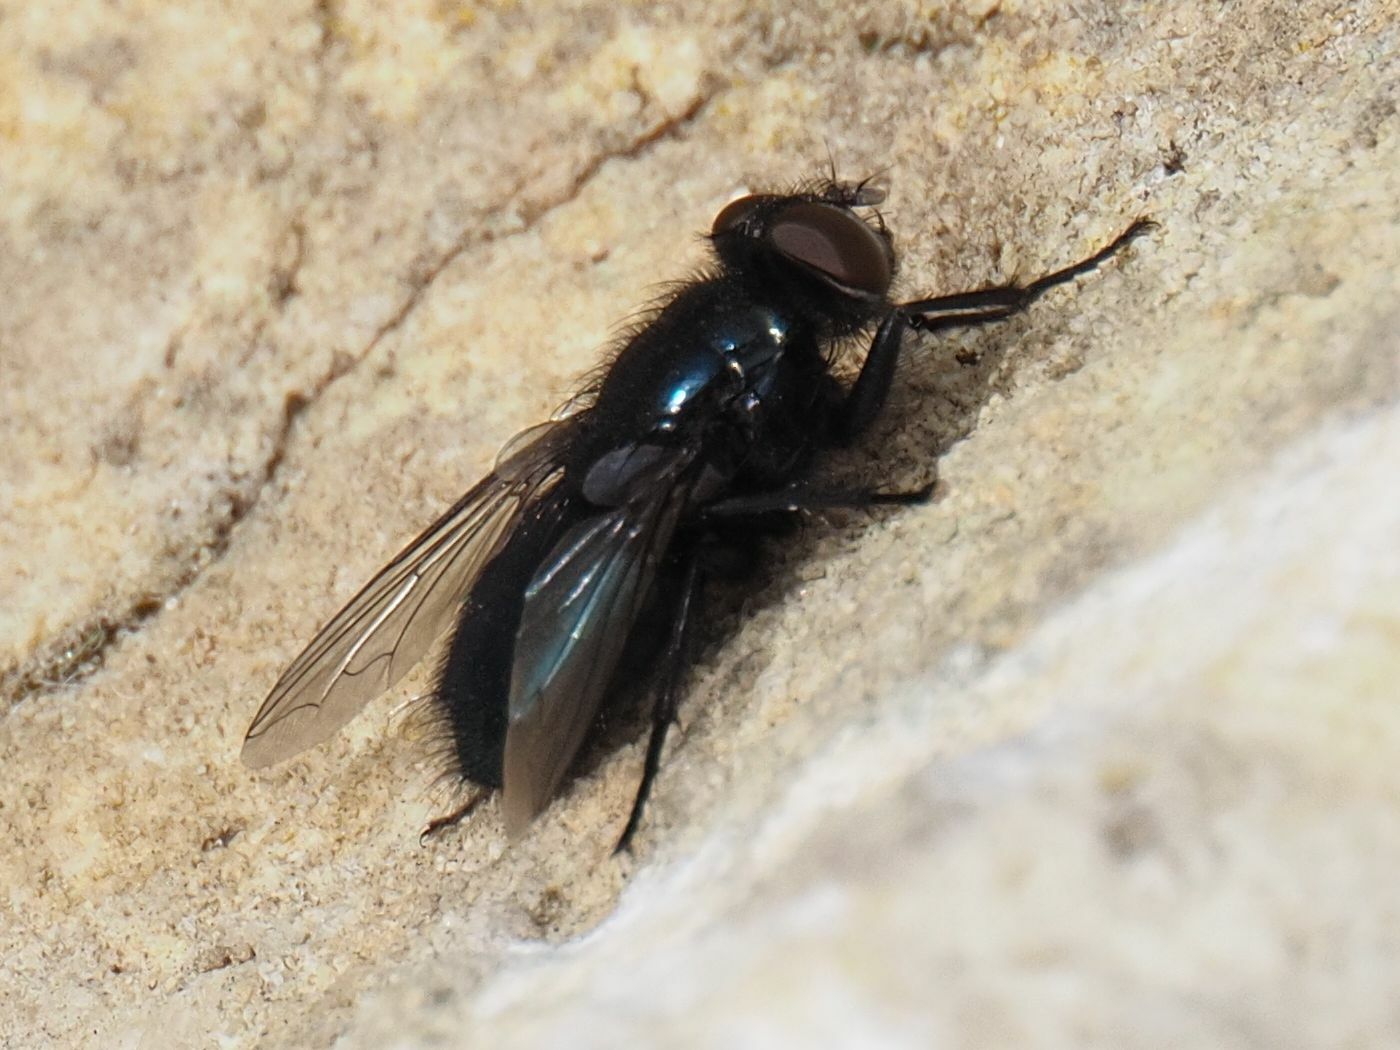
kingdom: Animalia
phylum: Arthropoda
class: Insecta
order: Diptera
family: Calliphoridae
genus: Protophormia
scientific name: Protophormia terraenovae
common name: Blackbottle
